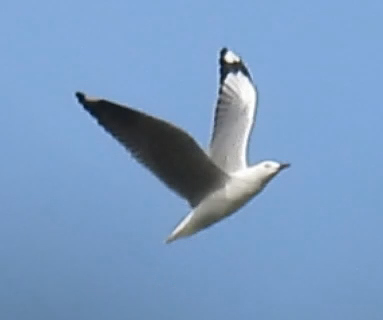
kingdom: Animalia
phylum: Chordata
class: Aves
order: Charadriiformes
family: Laridae
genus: Chroicocephalus
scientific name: Chroicocephalus hartlaubii
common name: Hartlaub's gull
